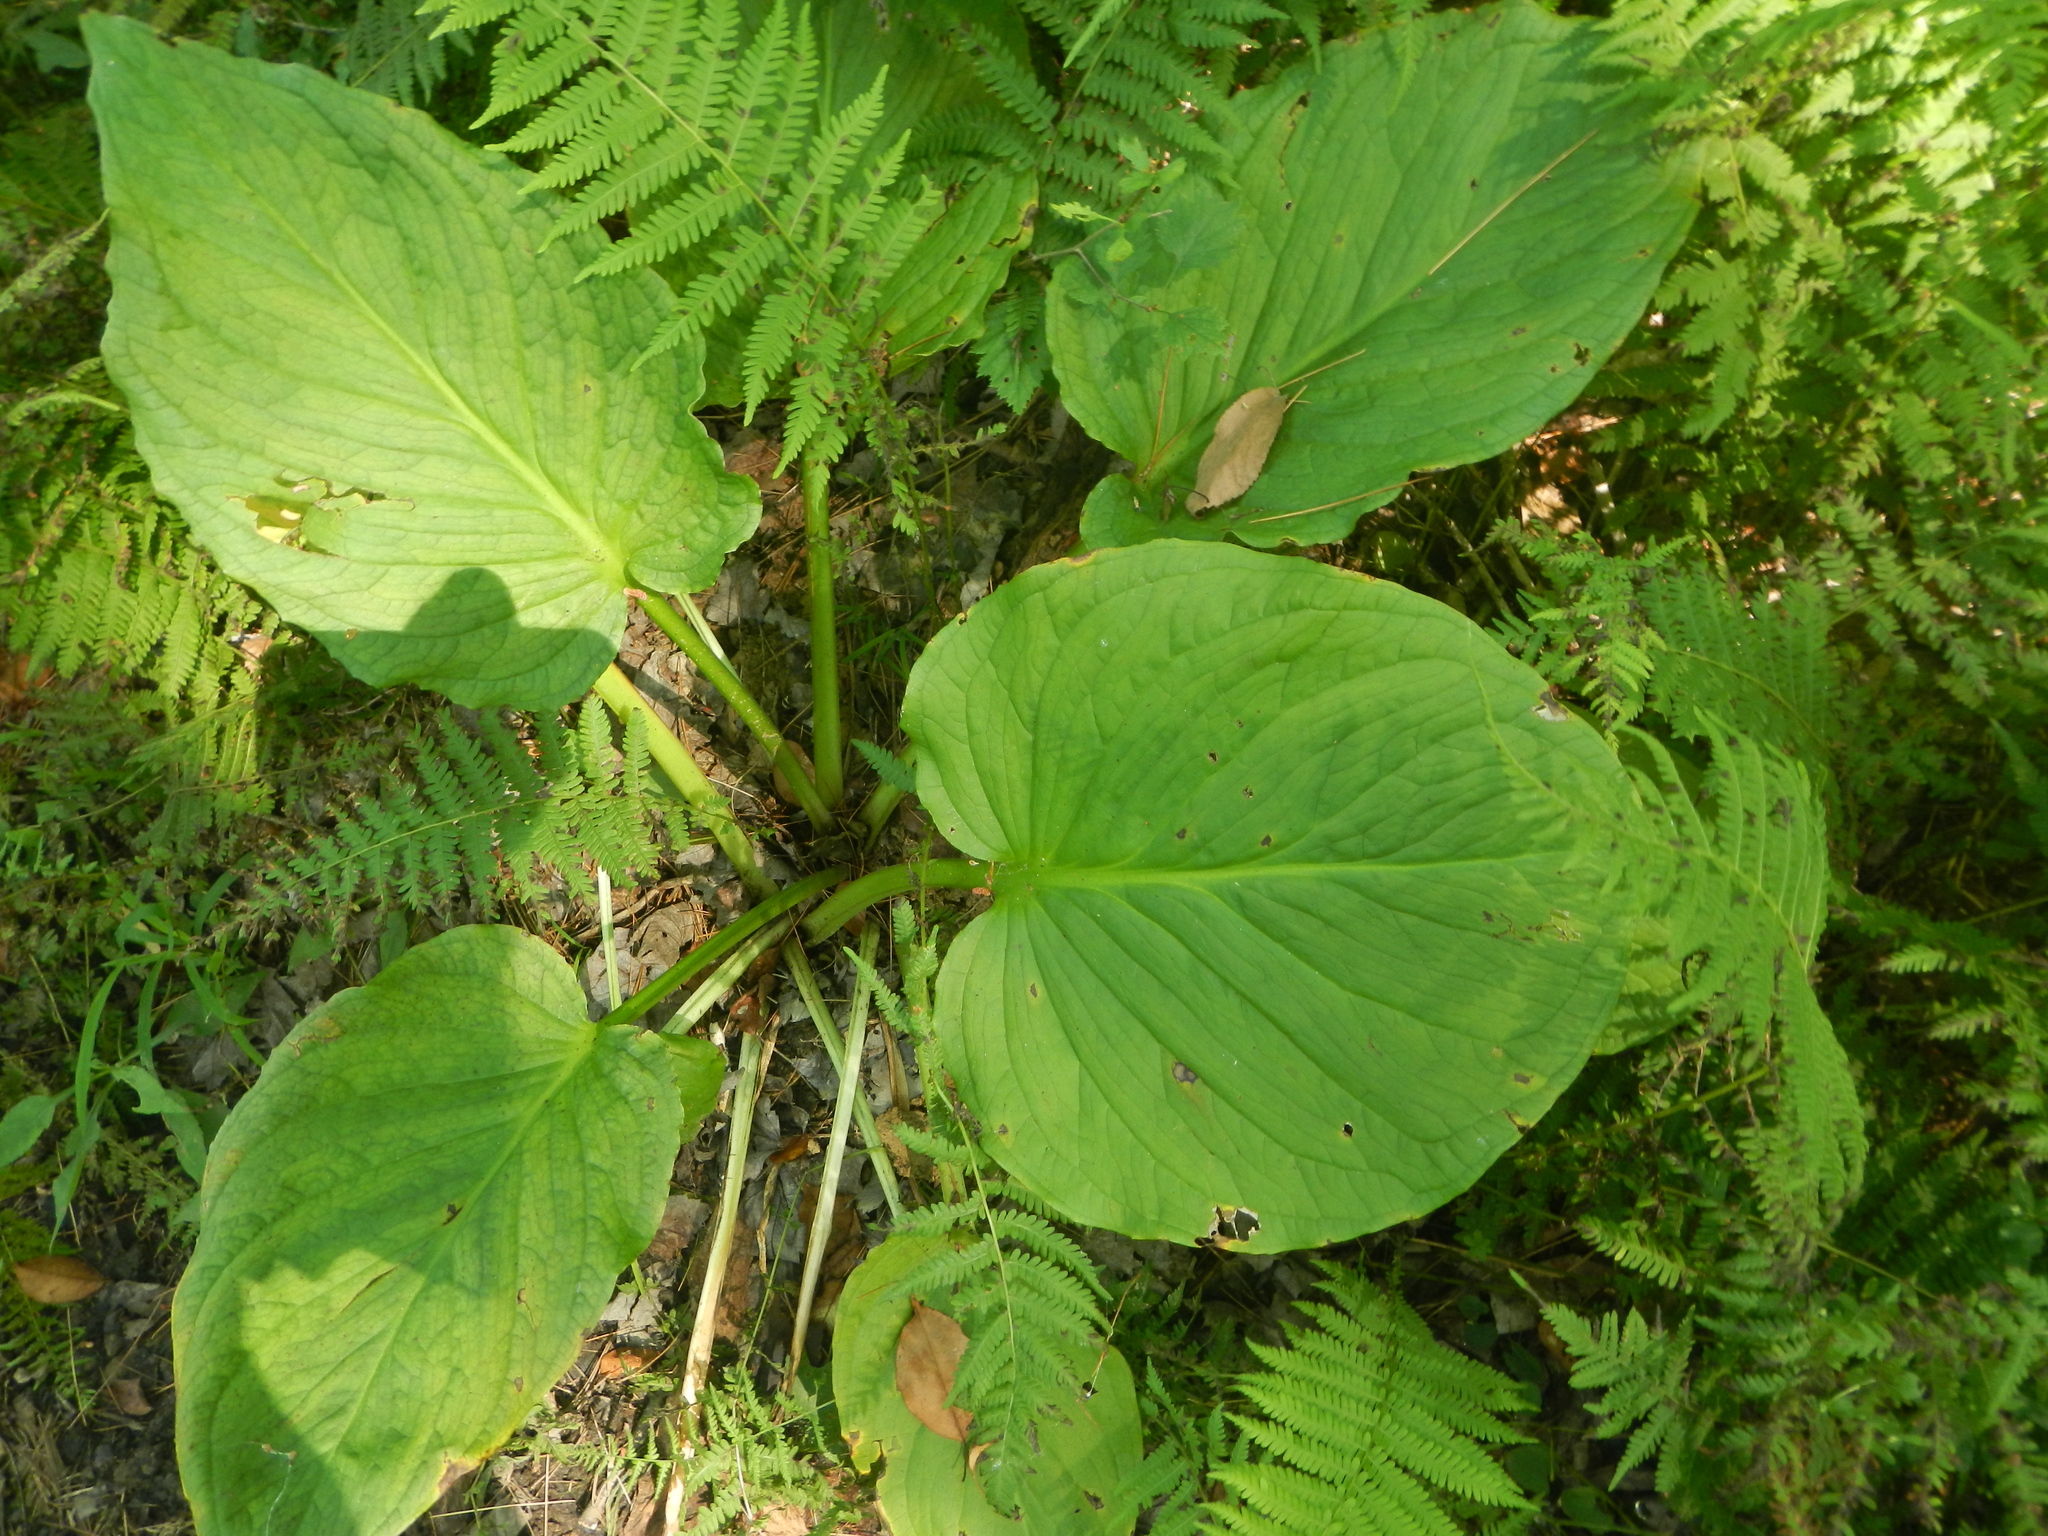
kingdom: Plantae
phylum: Tracheophyta
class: Liliopsida
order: Alismatales
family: Araceae
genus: Symplocarpus
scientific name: Symplocarpus foetidus
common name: Eastern skunk cabbage
